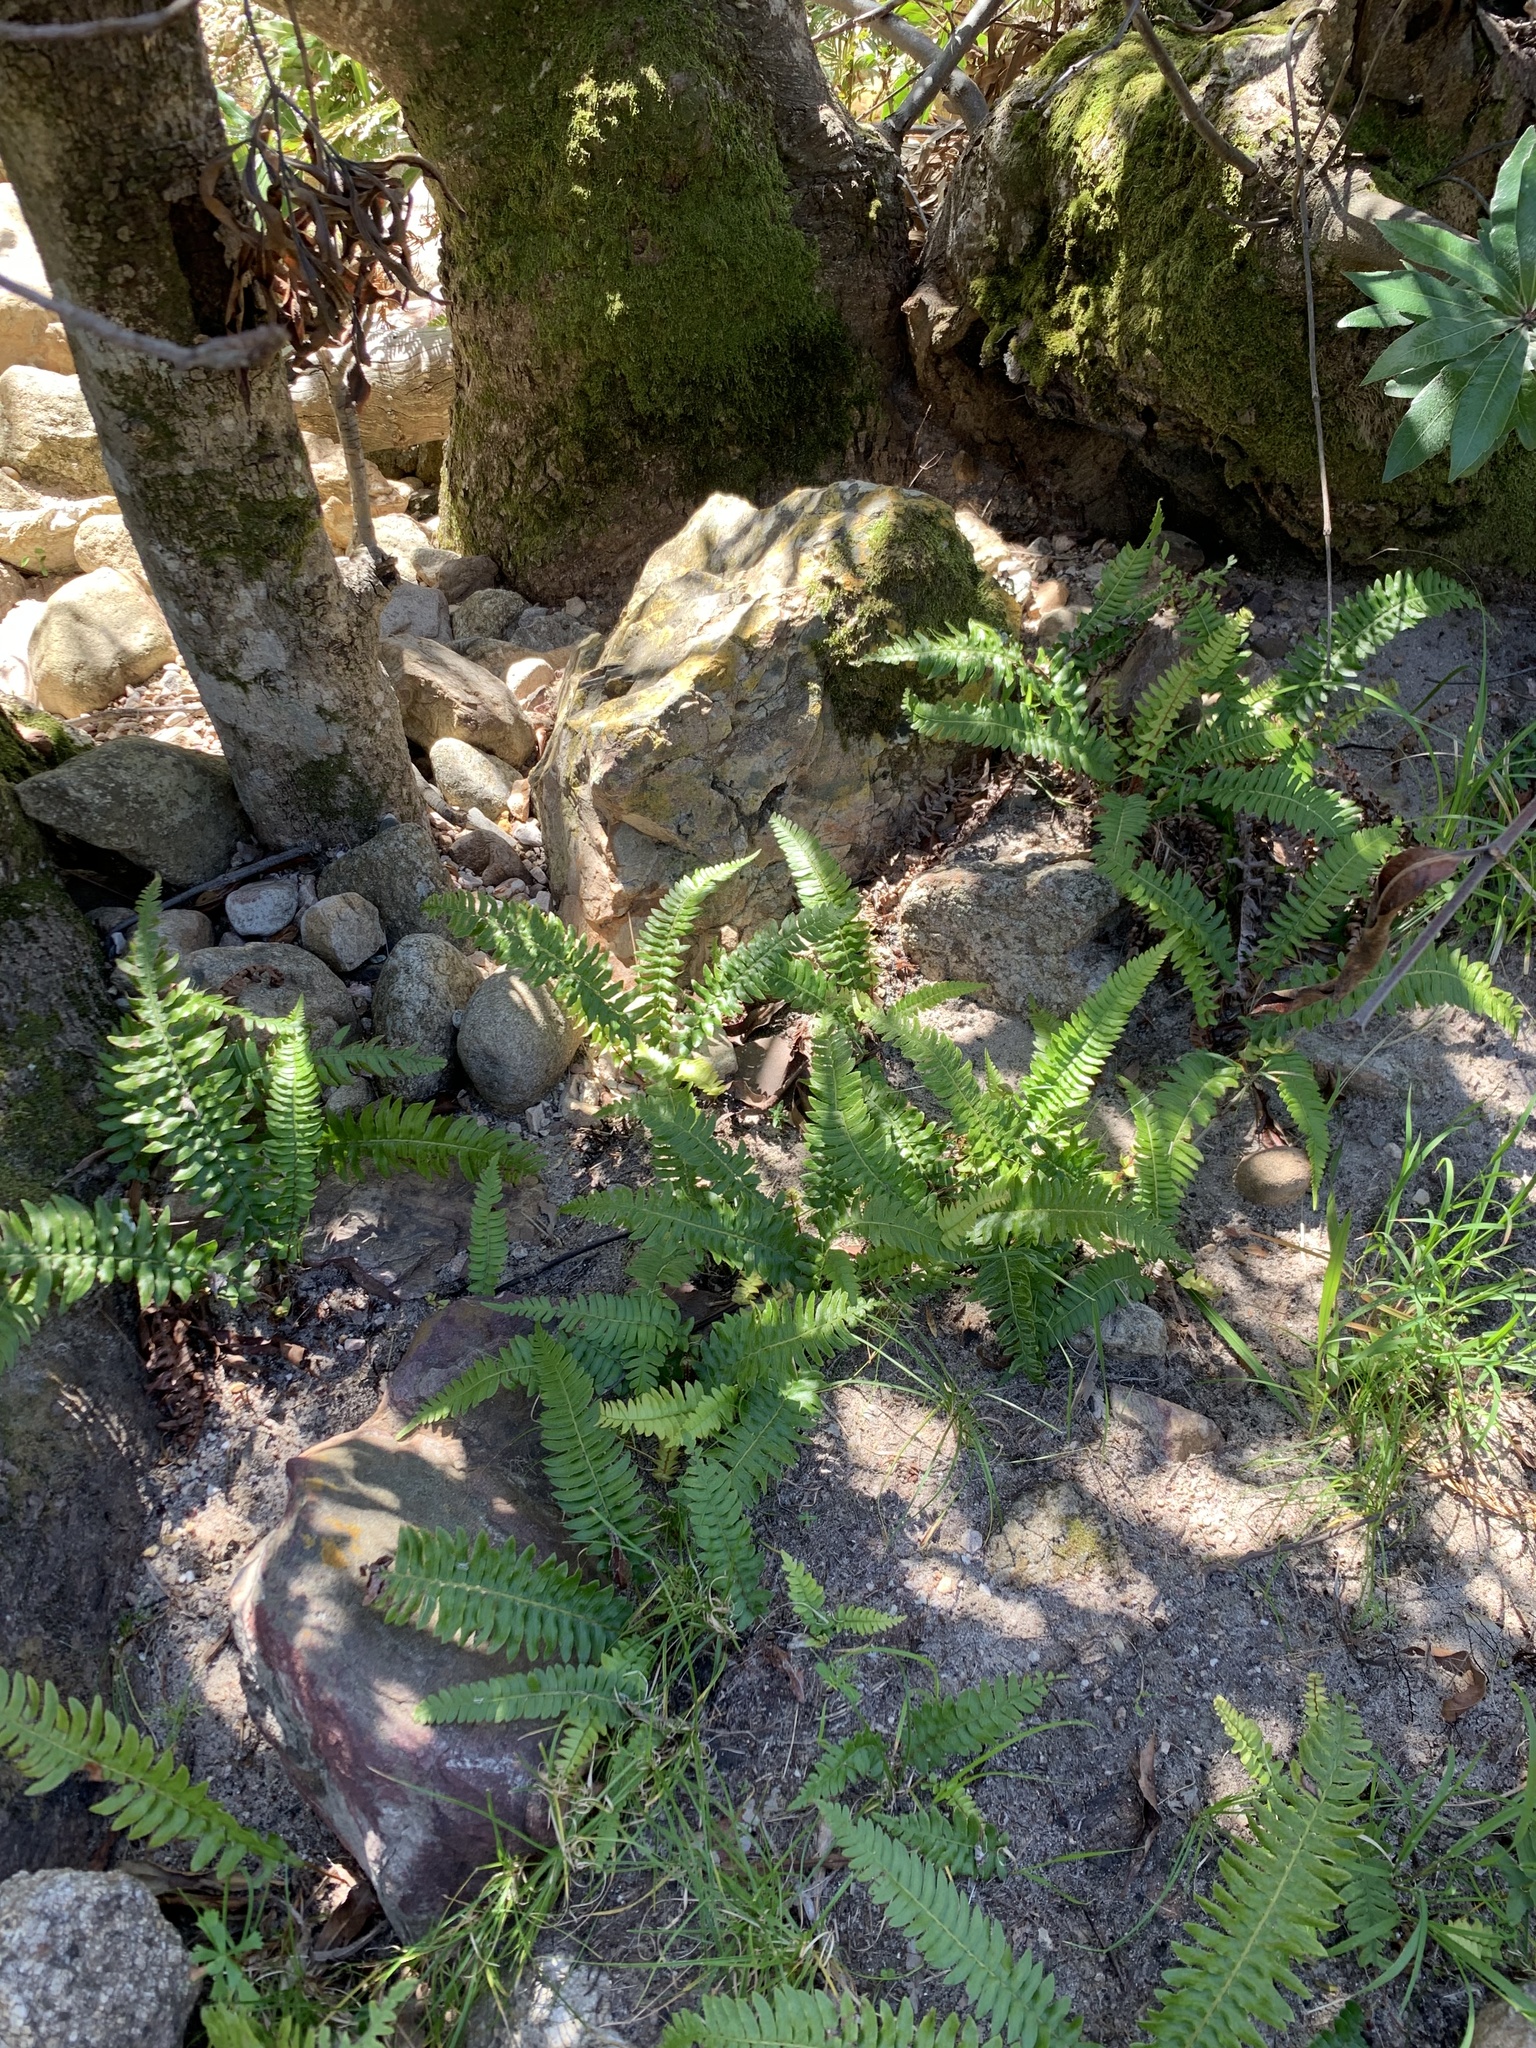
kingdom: Plantae
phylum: Tracheophyta
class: Polypodiopsida
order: Polypodiales
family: Blechnaceae
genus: Blechnum
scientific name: Blechnum punctulatum
